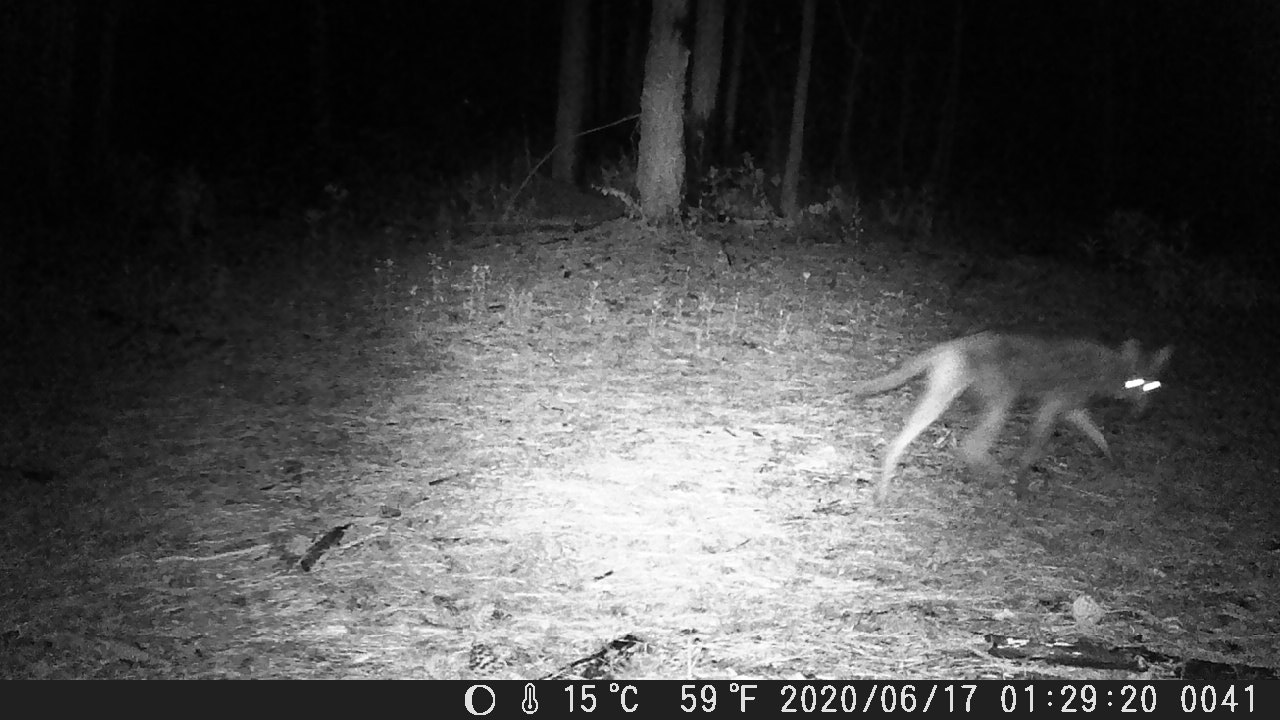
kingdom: Animalia
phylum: Chordata
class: Mammalia
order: Carnivora
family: Canidae
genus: Canis
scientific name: Canis latrans
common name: Coyote
